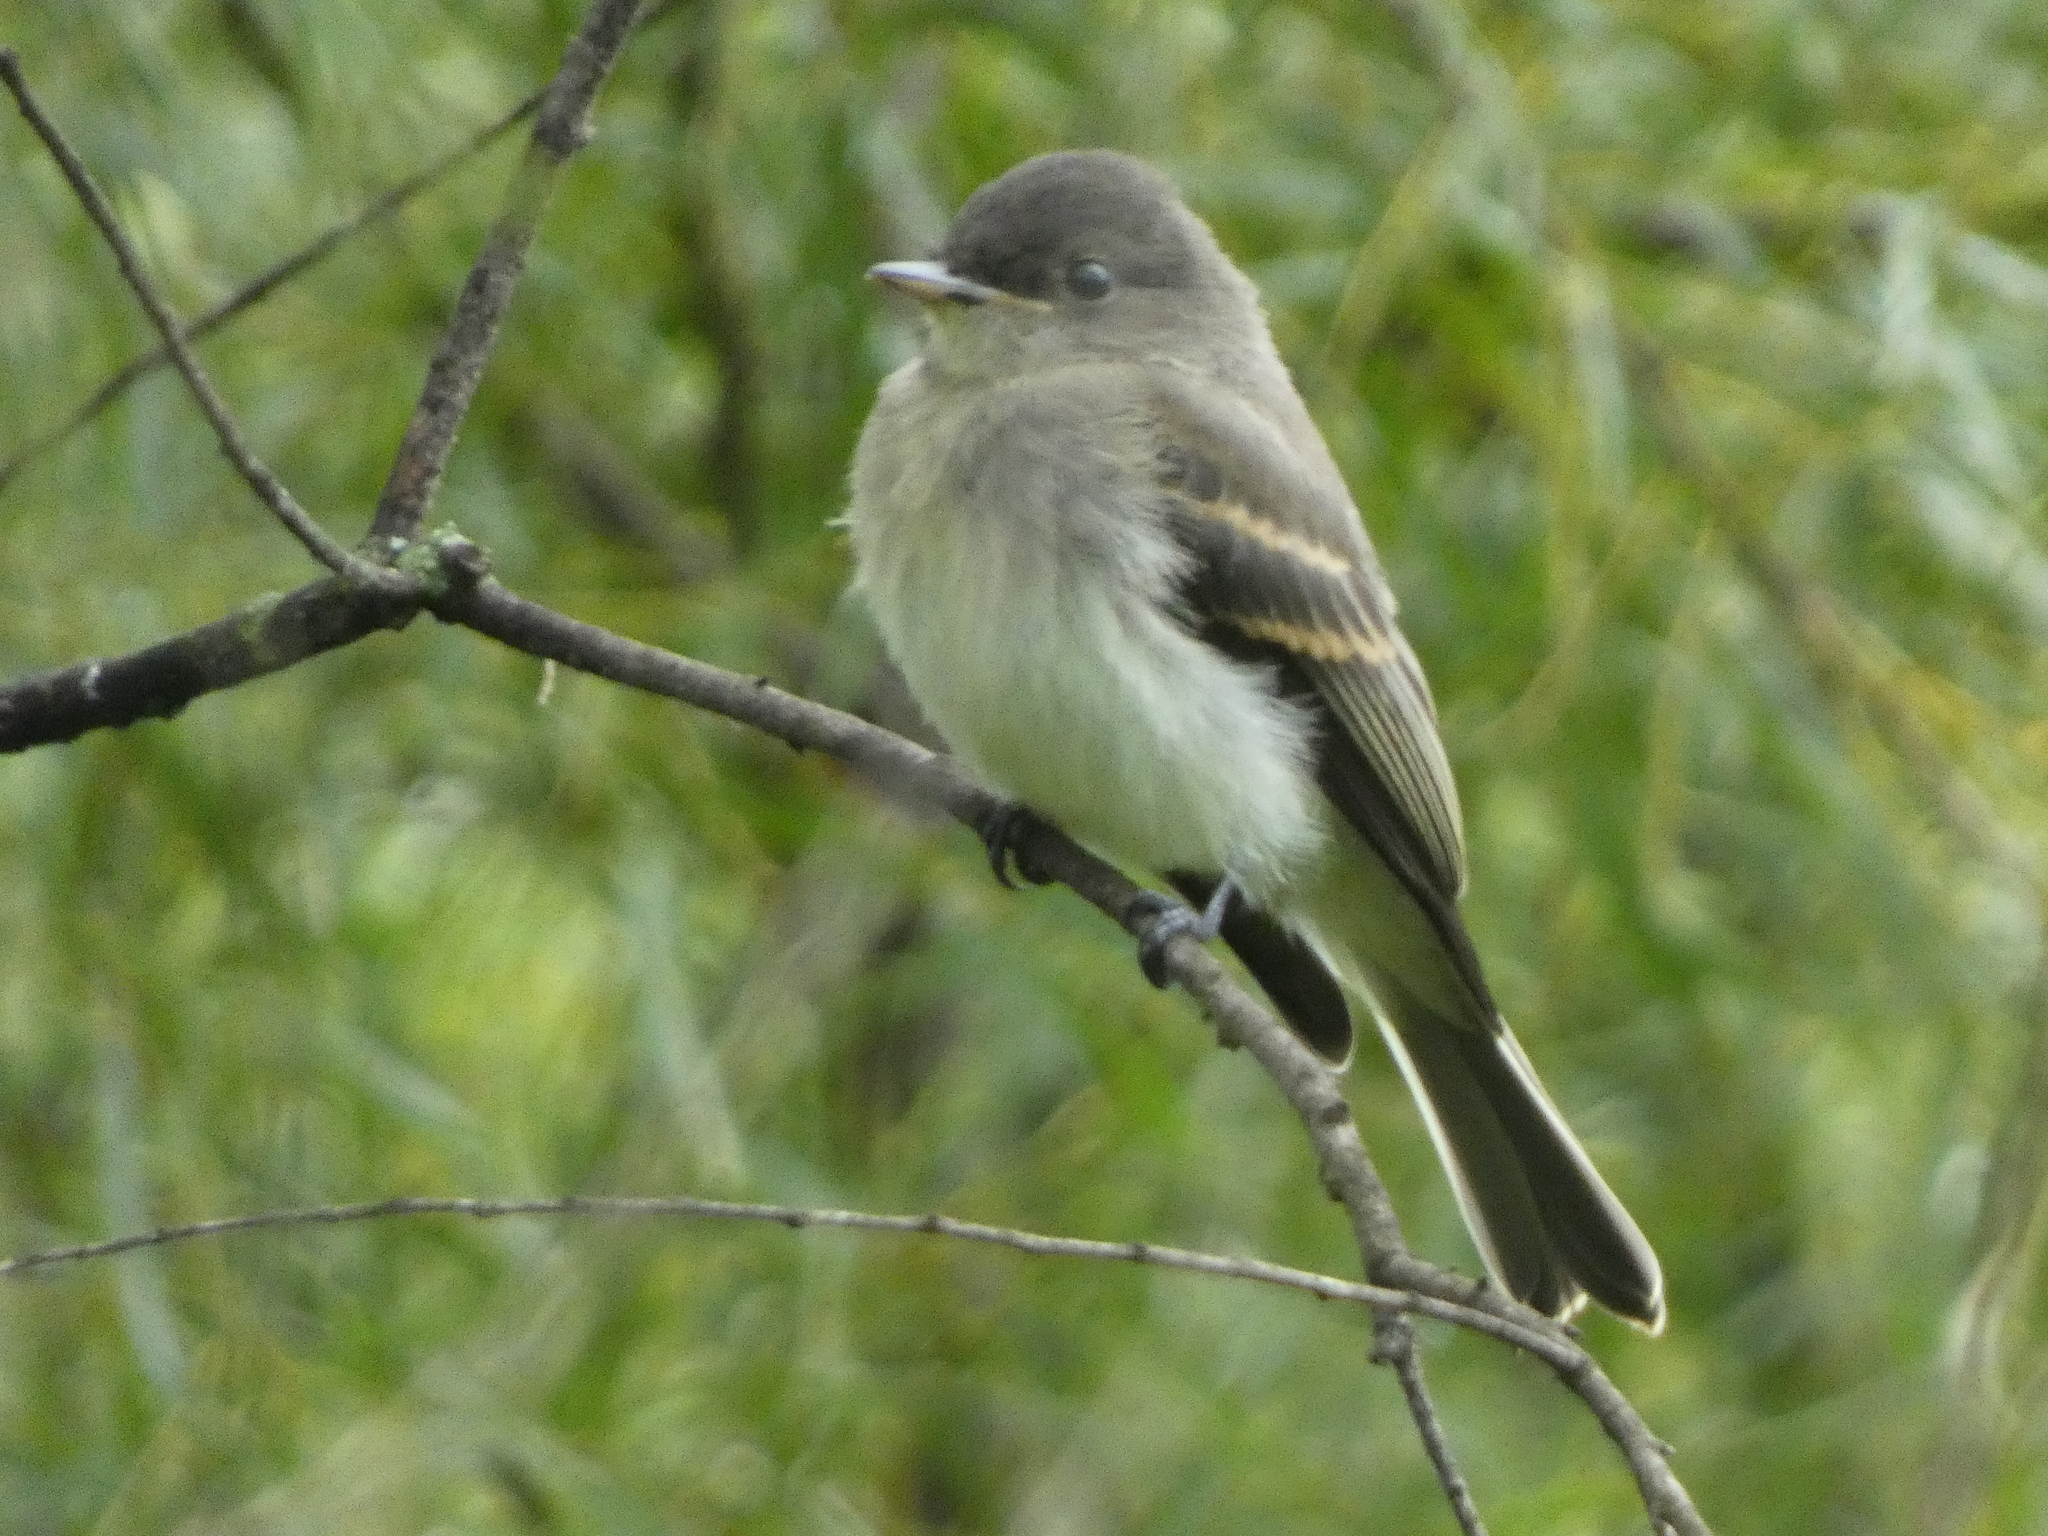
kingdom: Animalia
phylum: Chordata
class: Aves
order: Passeriformes
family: Tyrannidae
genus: Sayornis
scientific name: Sayornis phoebe
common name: Eastern phoebe
